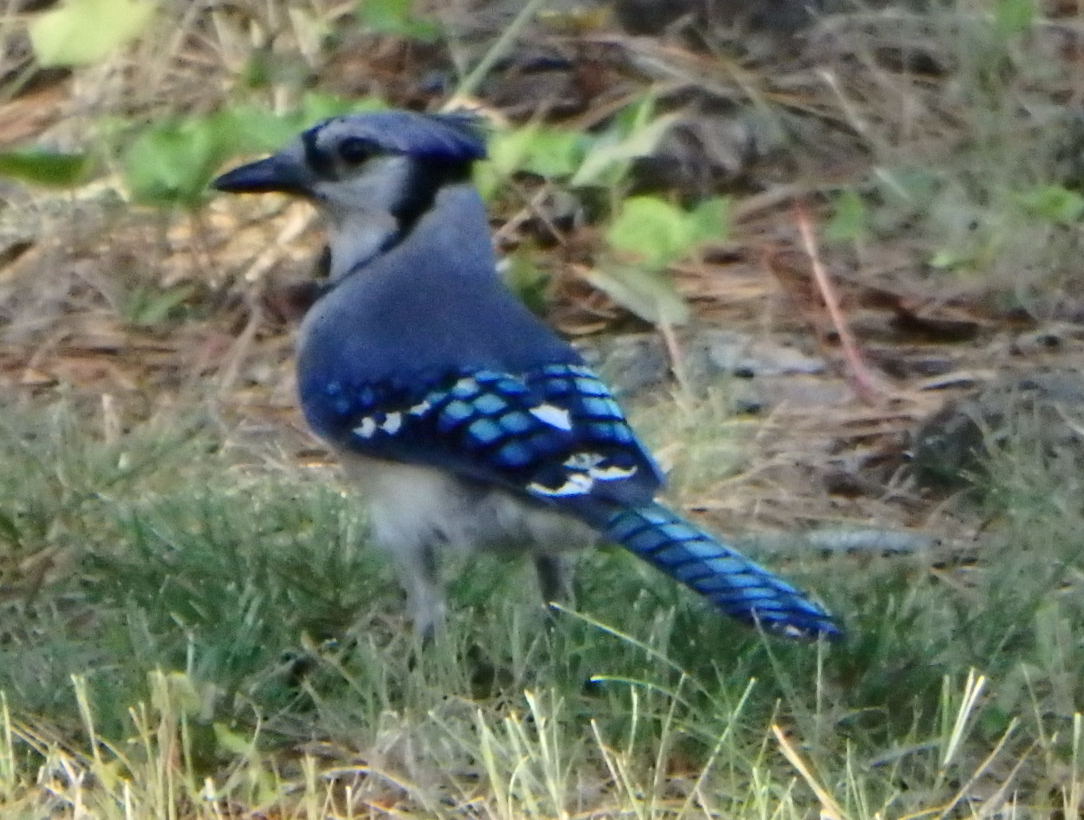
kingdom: Animalia
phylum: Chordata
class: Aves
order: Passeriformes
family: Corvidae
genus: Cyanocitta
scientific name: Cyanocitta cristata
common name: Blue jay
